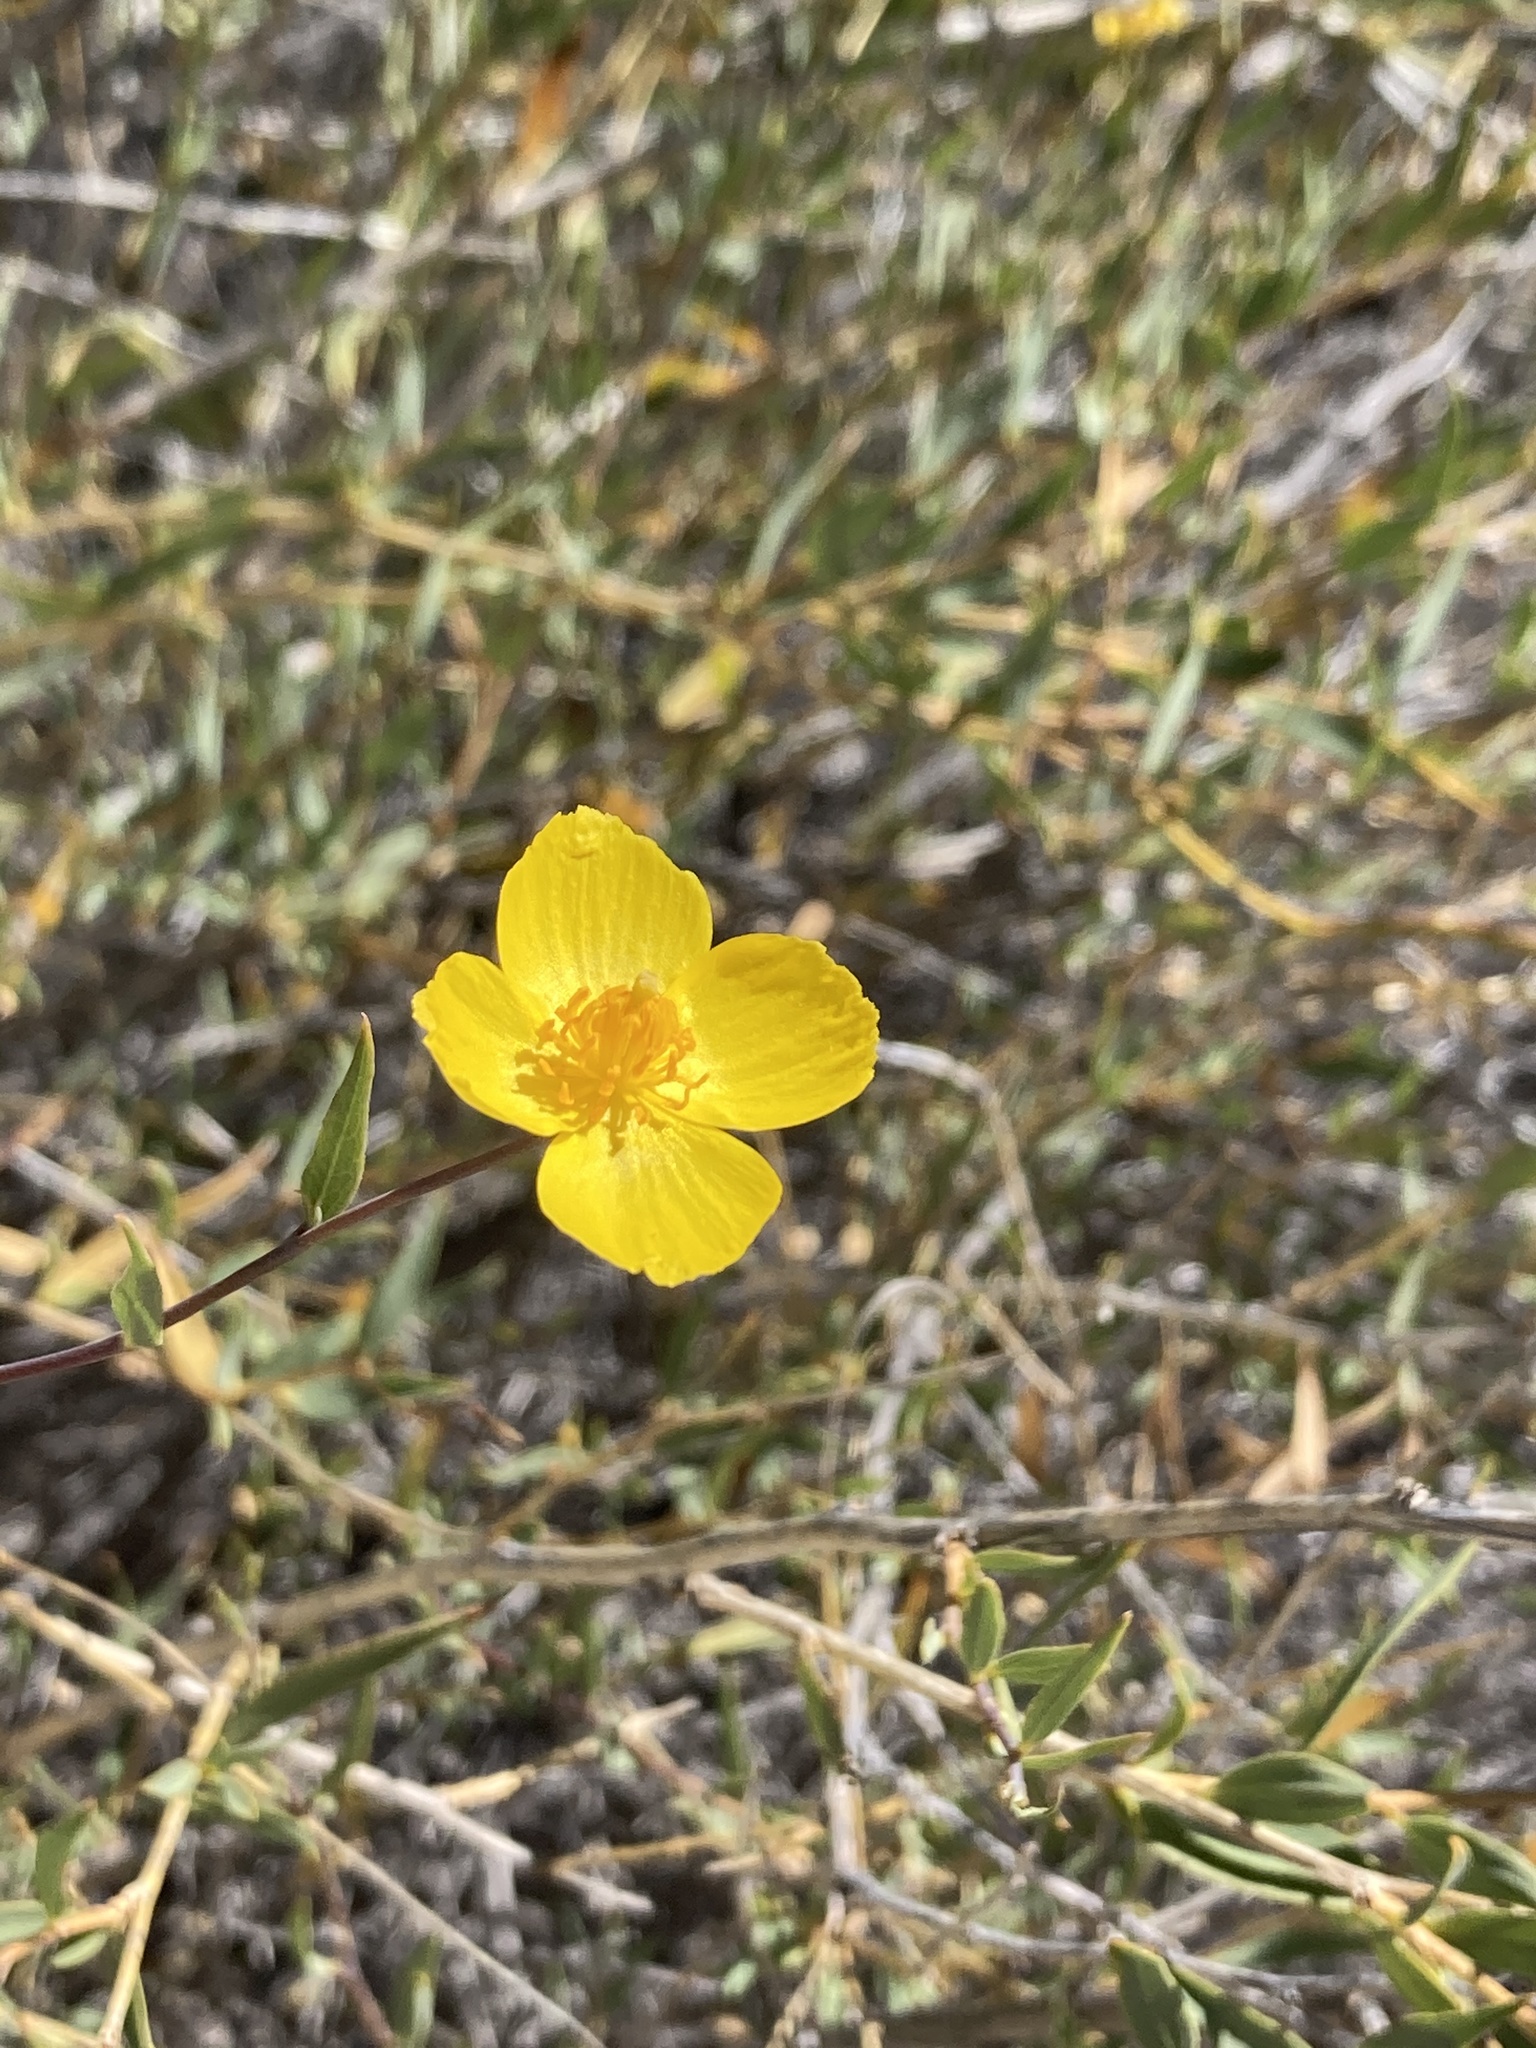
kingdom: Plantae
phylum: Tracheophyta
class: Magnoliopsida
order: Ranunculales
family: Papaveraceae
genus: Dendromecon
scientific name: Dendromecon rigida
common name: Tree poppy
